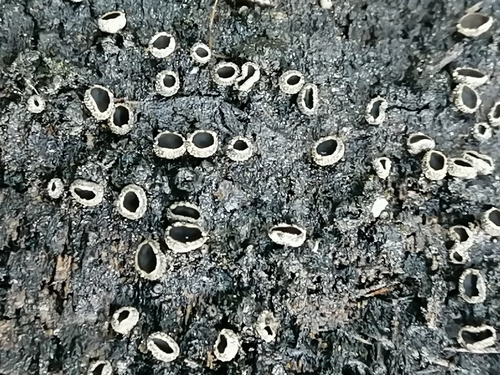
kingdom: Fungi
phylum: Ascomycota
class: Leotiomycetes
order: Helotiales
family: Sclerotiniaceae
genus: Sclerencoelia
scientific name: Sclerencoelia pruinosa
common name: Sooty-bark canker
